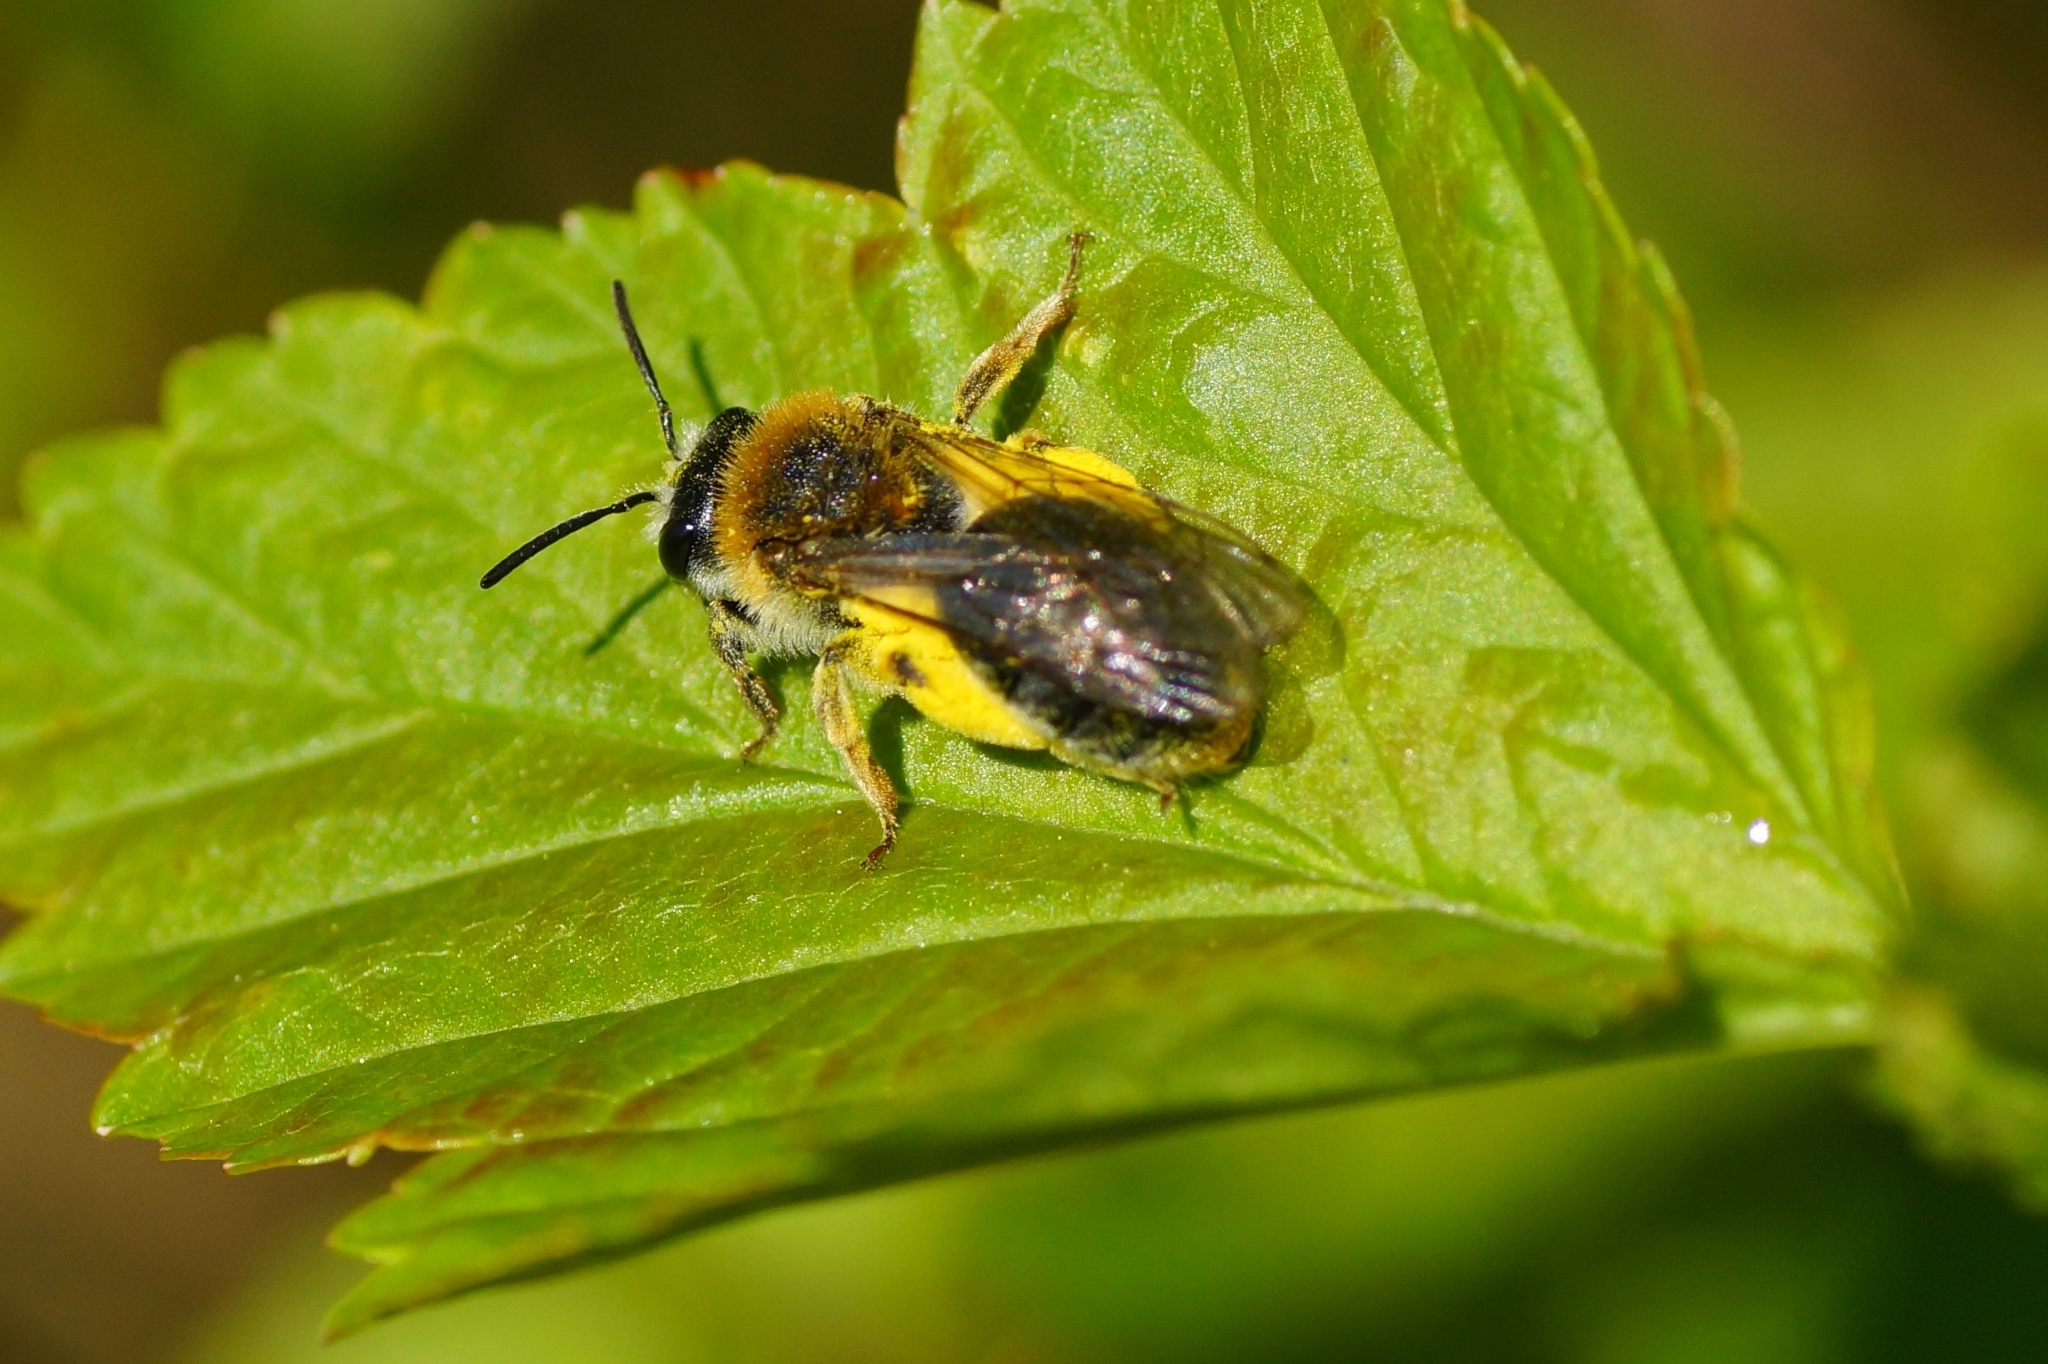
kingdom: Animalia
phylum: Arthropoda
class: Insecta
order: Hymenoptera
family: Andrenidae
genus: Andrena
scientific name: Andrena haemorrhoa
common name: Early mining bee
